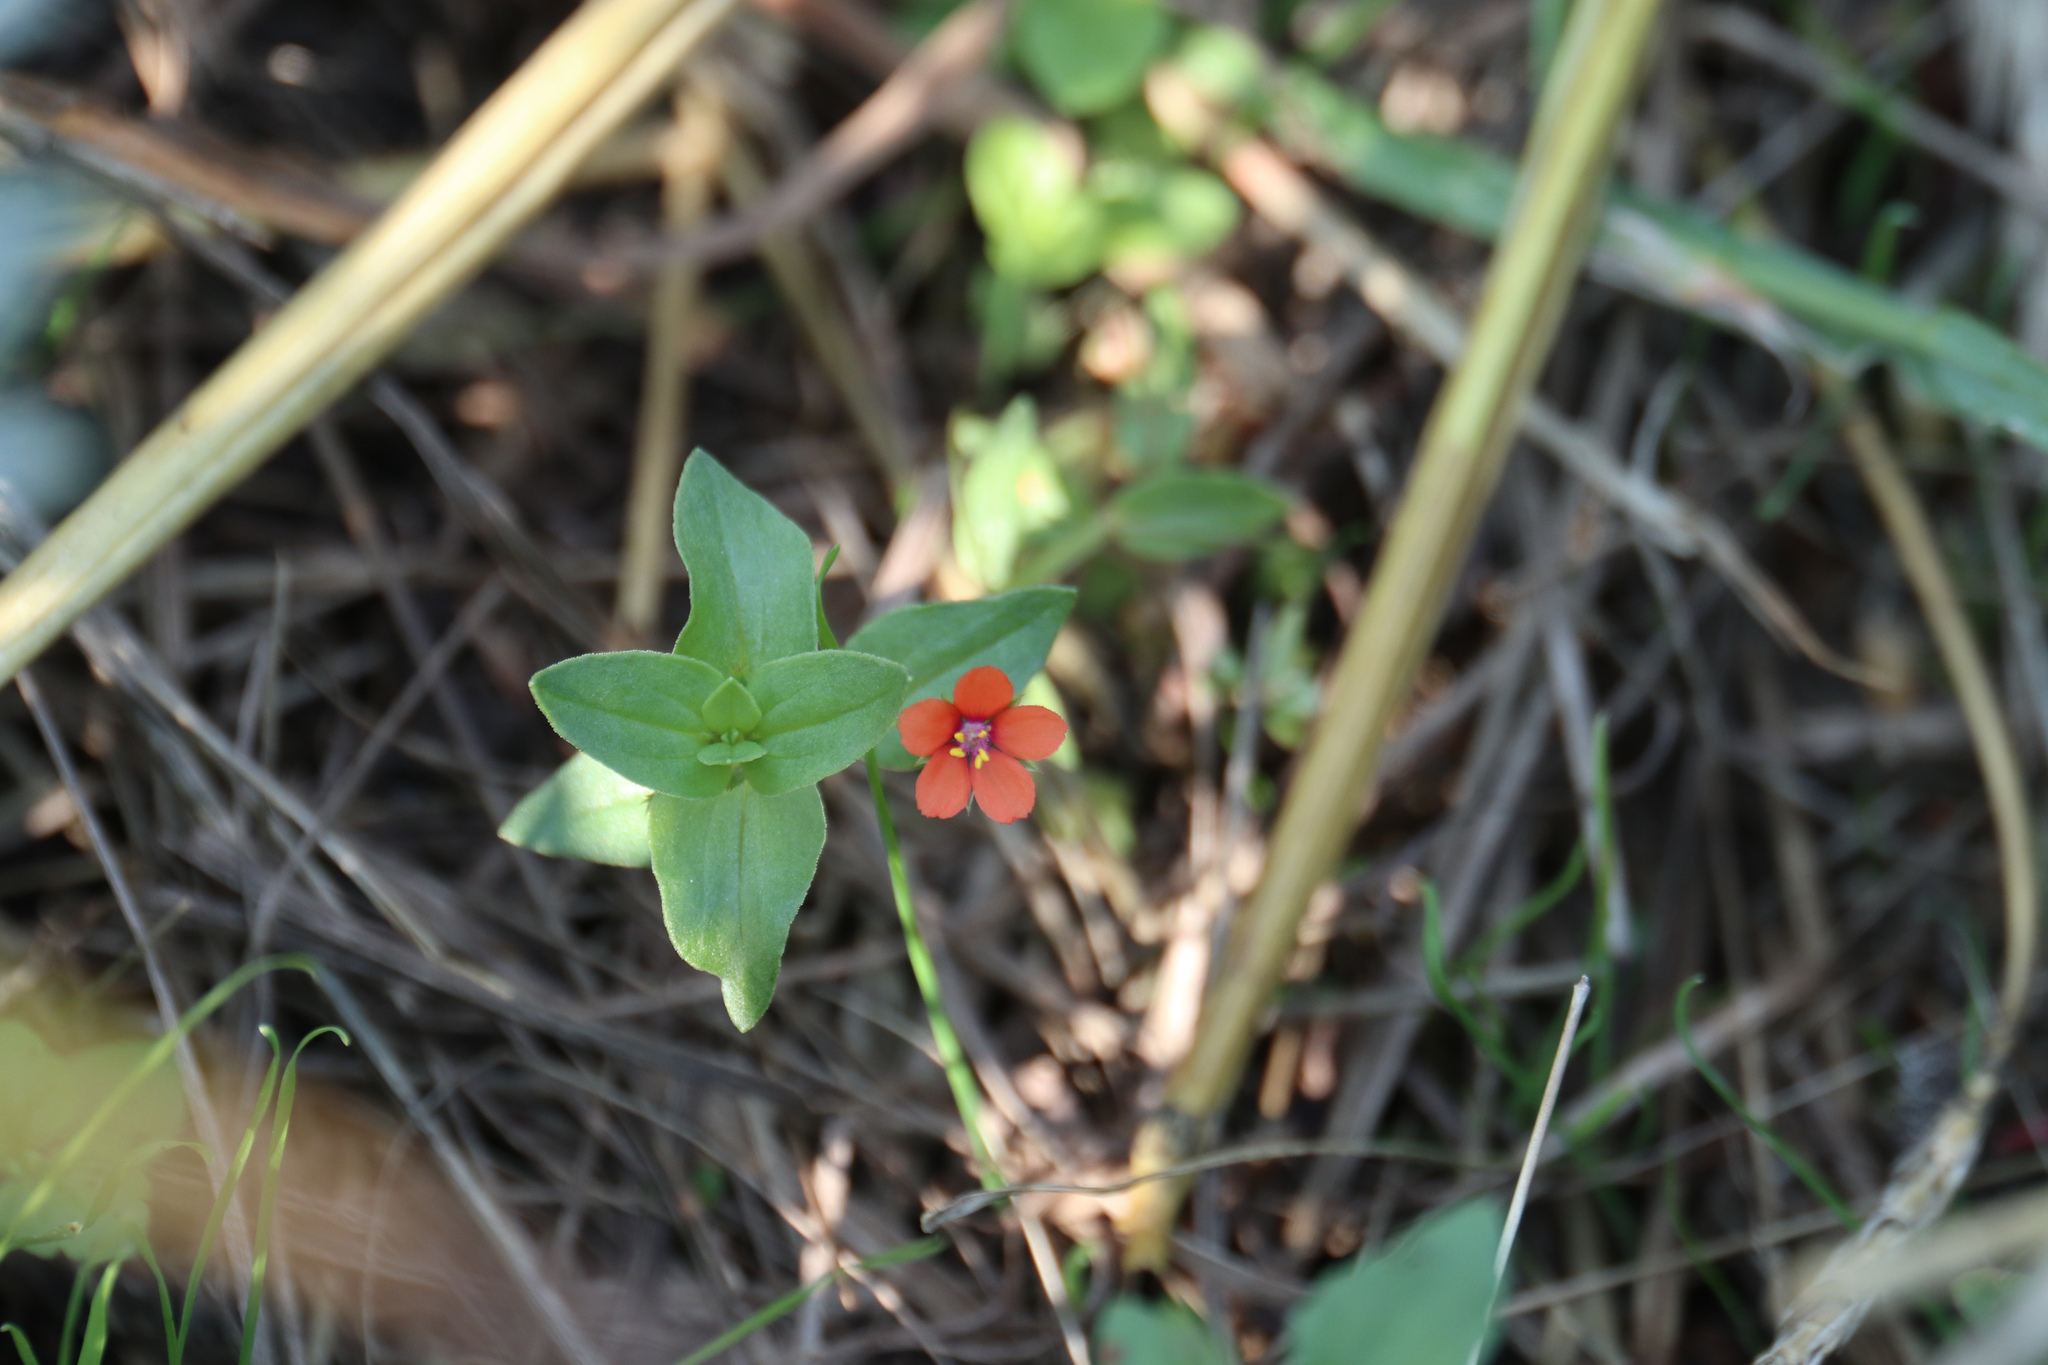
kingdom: Plantae
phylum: Tracheophyta
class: Magnoliopsida
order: Ericales
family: Primulaceae
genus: Lysimachia
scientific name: Lysimachia arvensis
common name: Scarlet pimpernel
